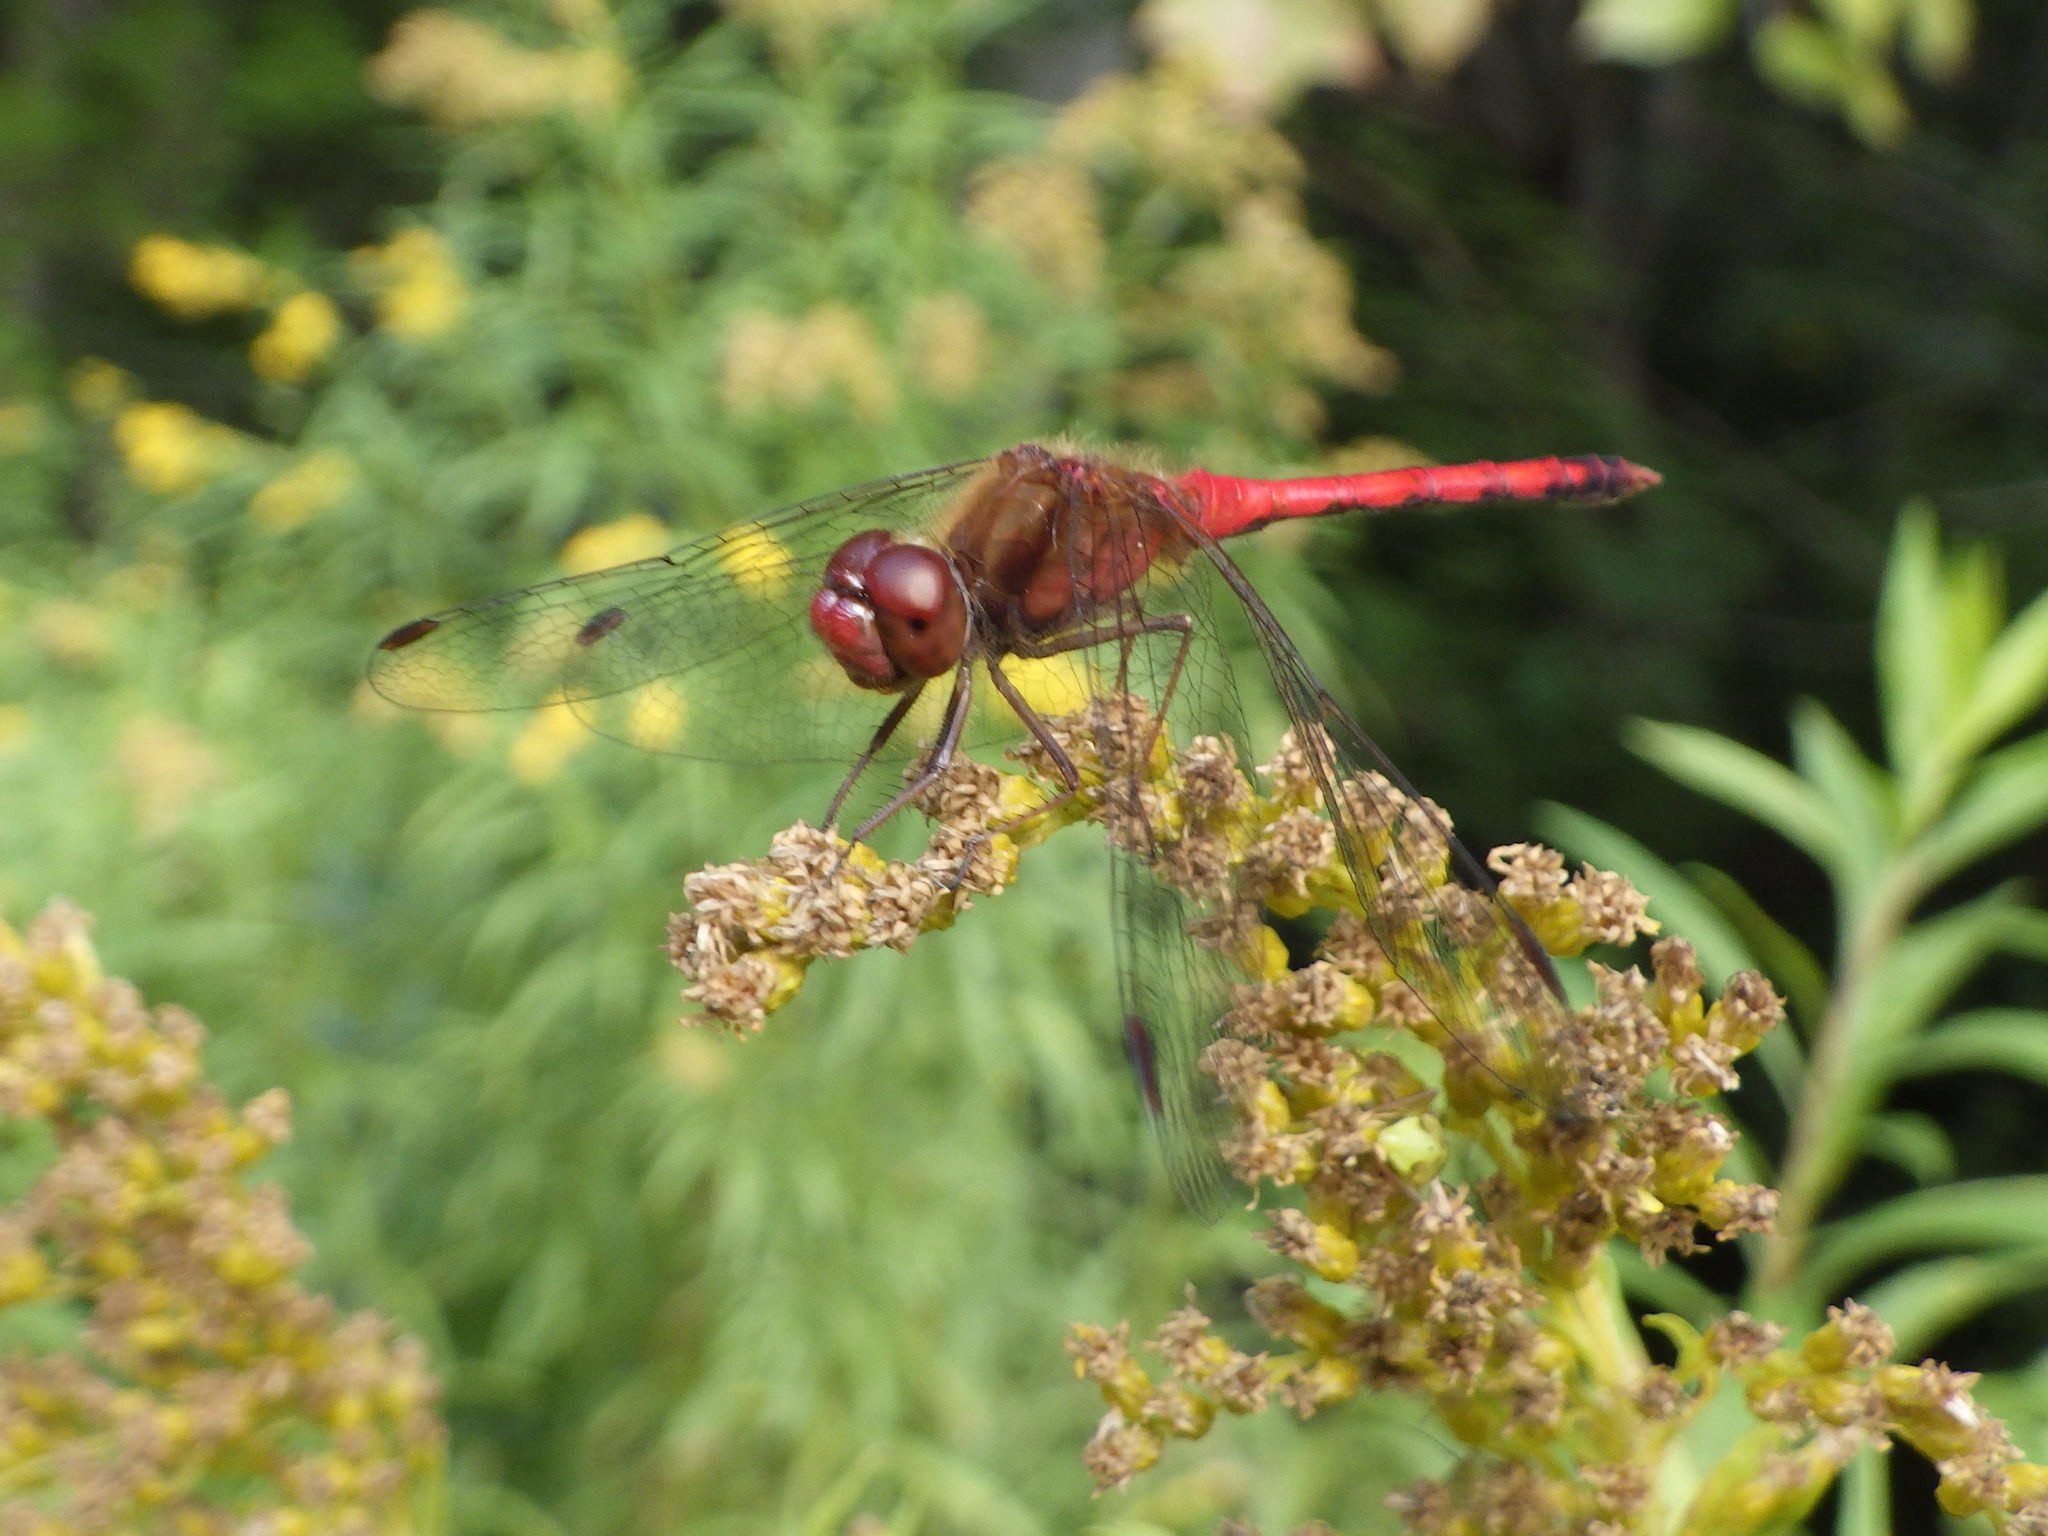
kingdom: Animalia
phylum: Arthropoda
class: Insecta
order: Odonata
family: Libellulidae
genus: Sympetrum
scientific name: Sympetrum vicinum
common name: Autumn meadowhawk
